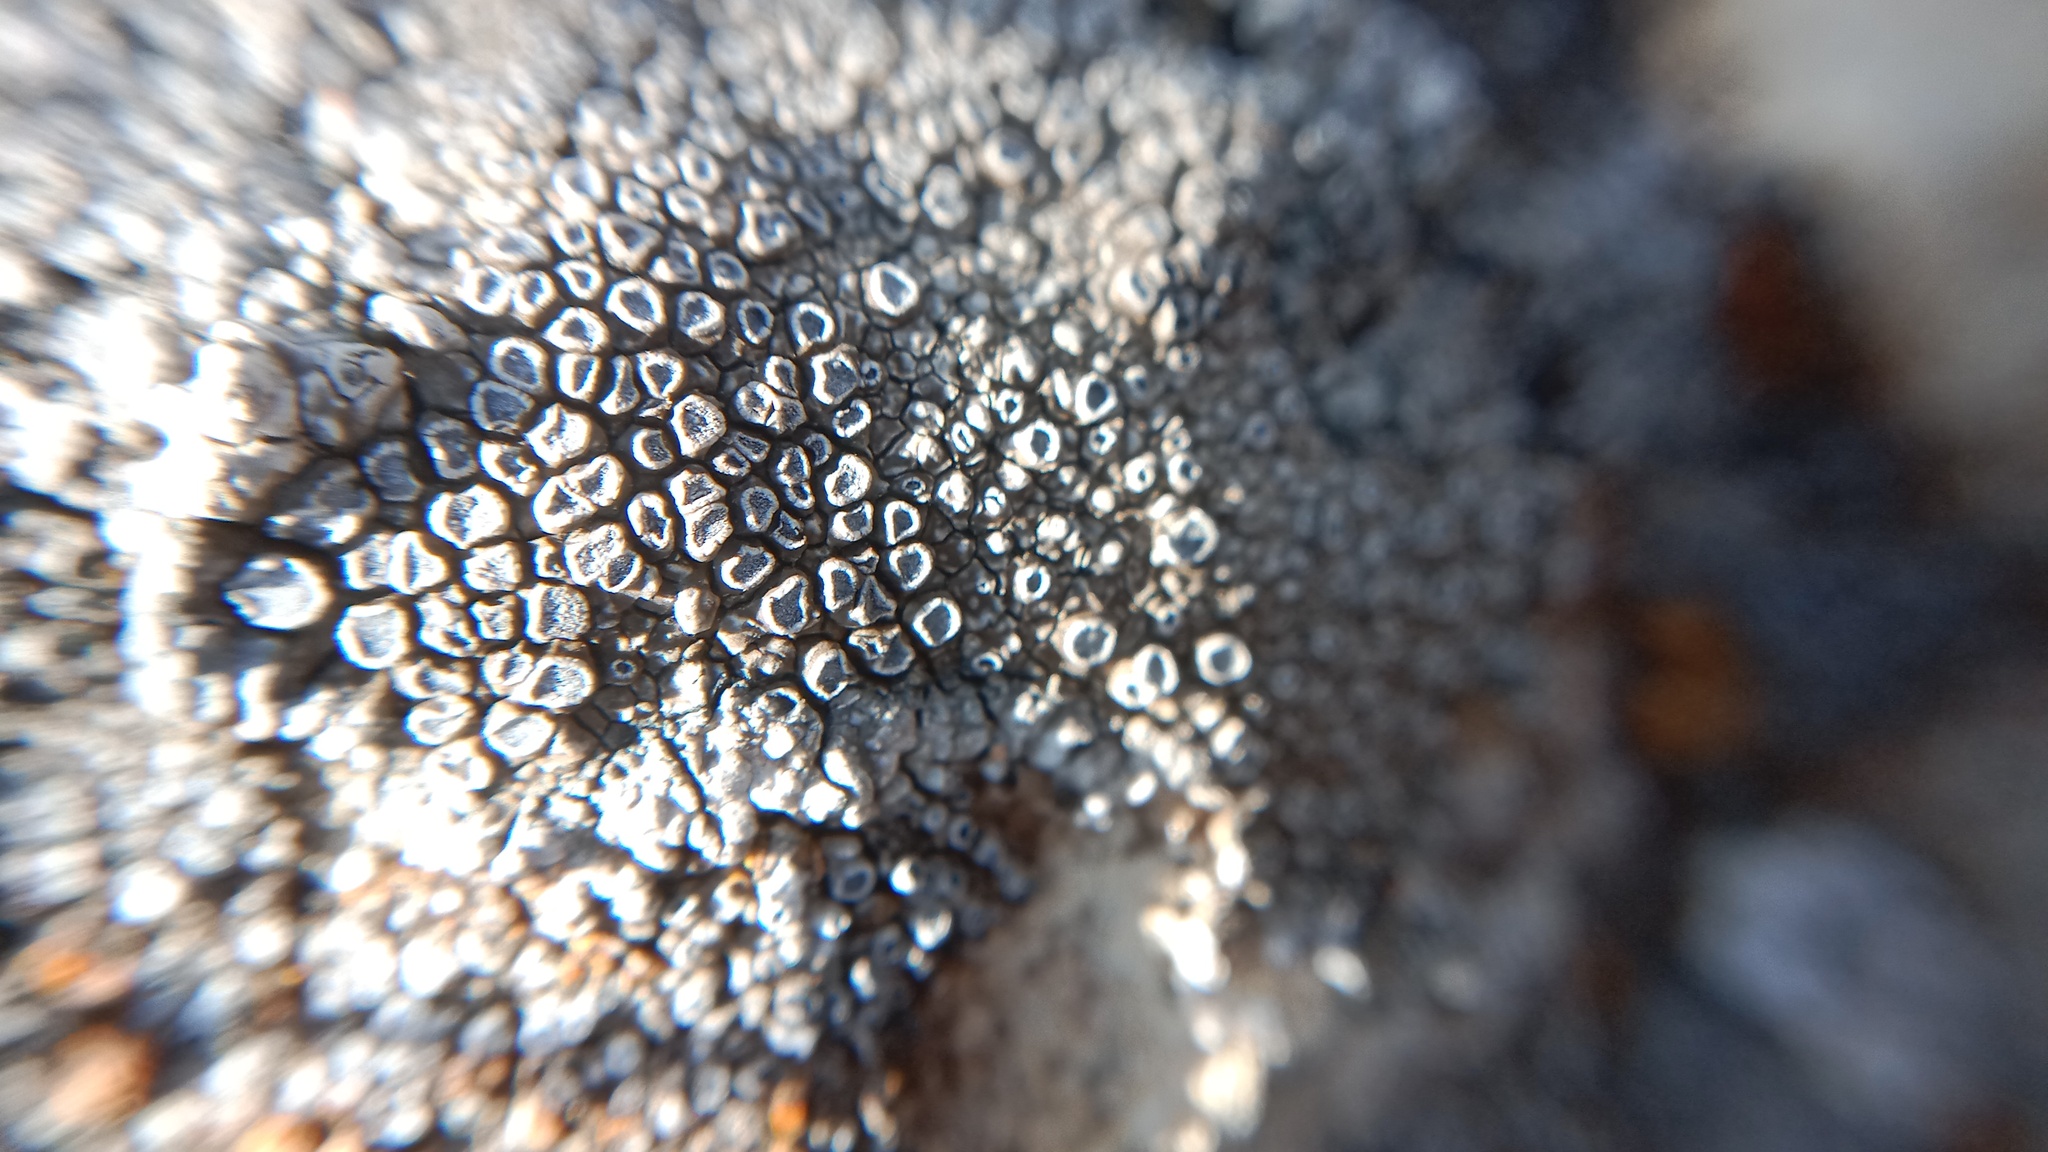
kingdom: Fungi
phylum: Ascomycota
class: Lecanoromycetes
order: Teloschistales
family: Teloschistaceae
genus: Pyrenodesmia
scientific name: Pyrenodesmia variabilis
